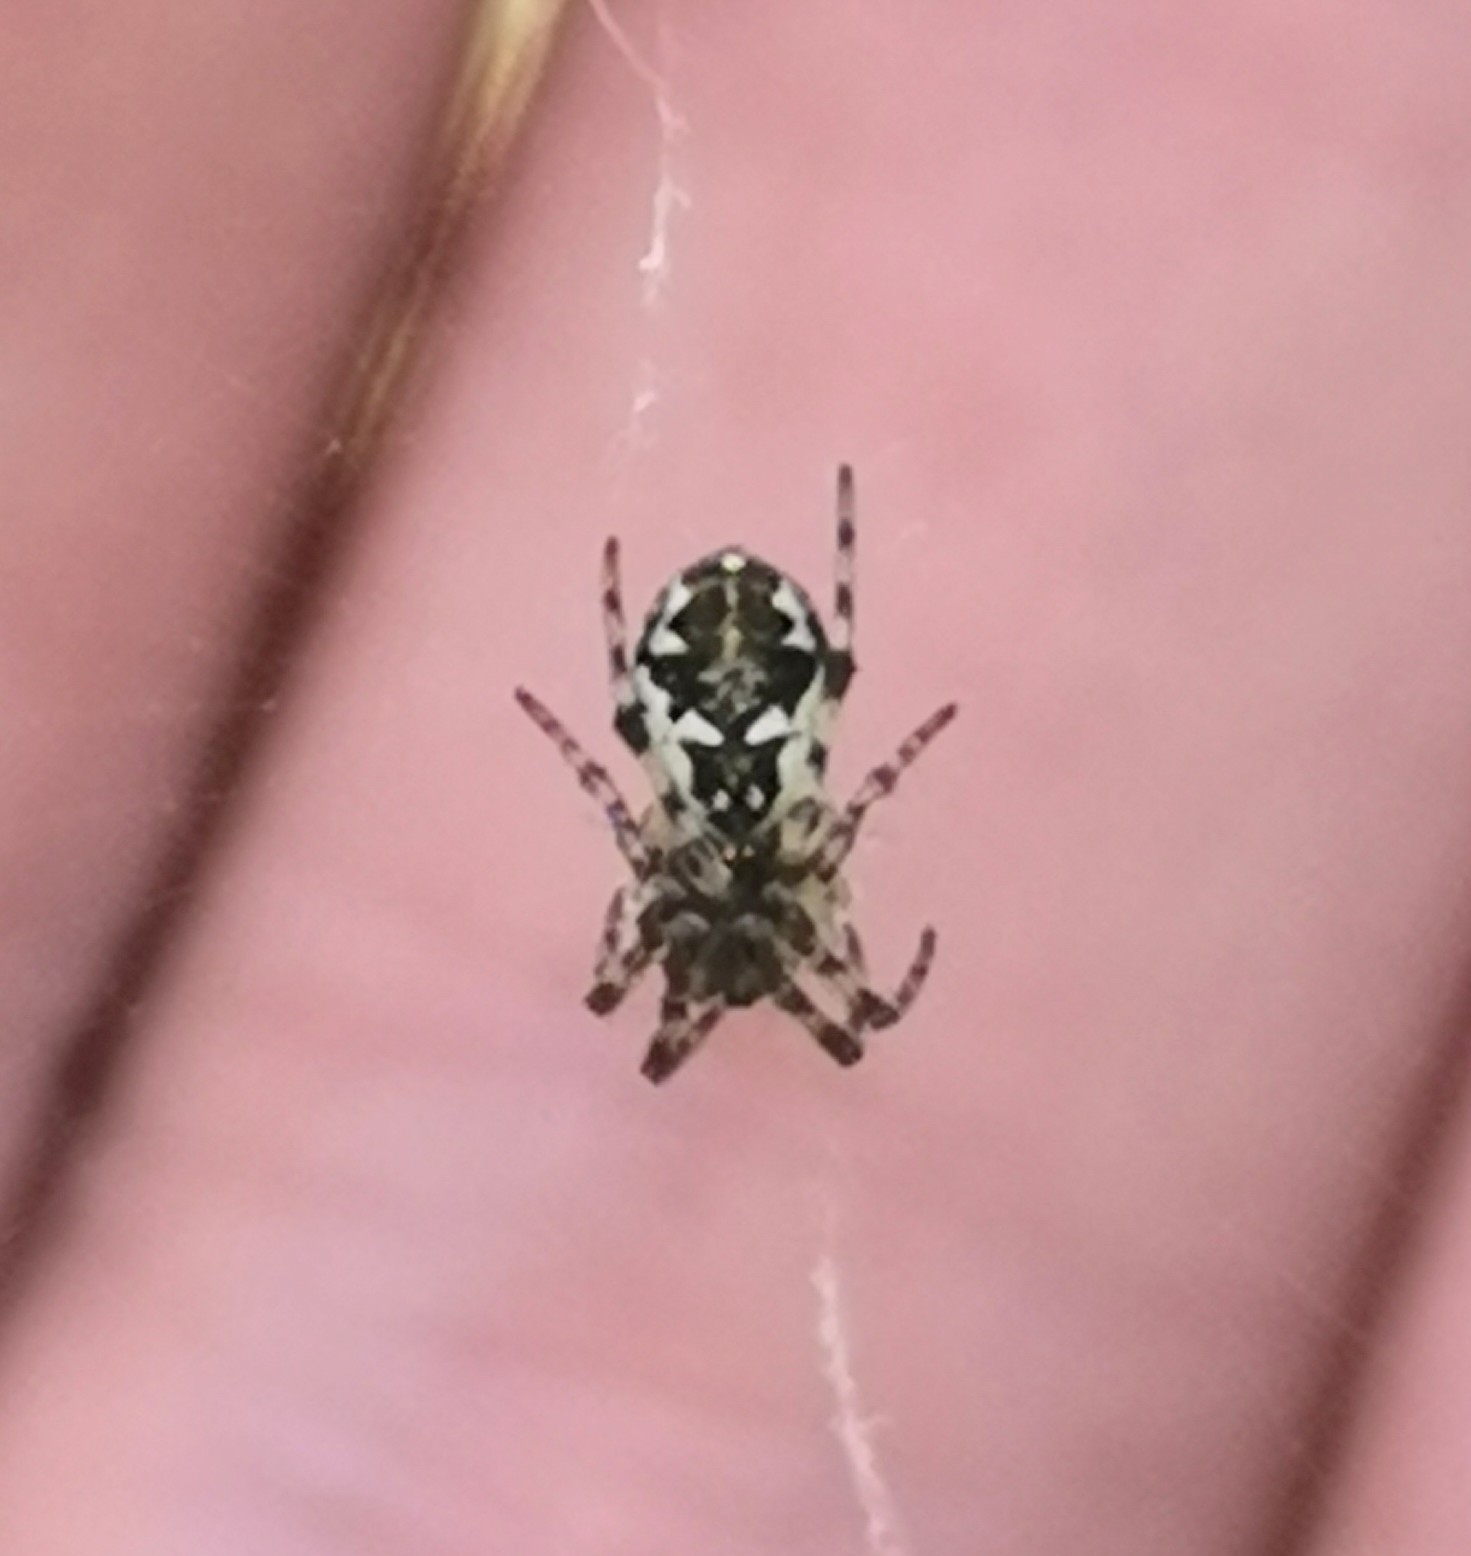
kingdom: Animalia
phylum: Arthropoda
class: Arachnida
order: Araneae
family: Araneidae
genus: Cyclosa
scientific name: Cyclosa conica
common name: Conical trashline orbweaver
